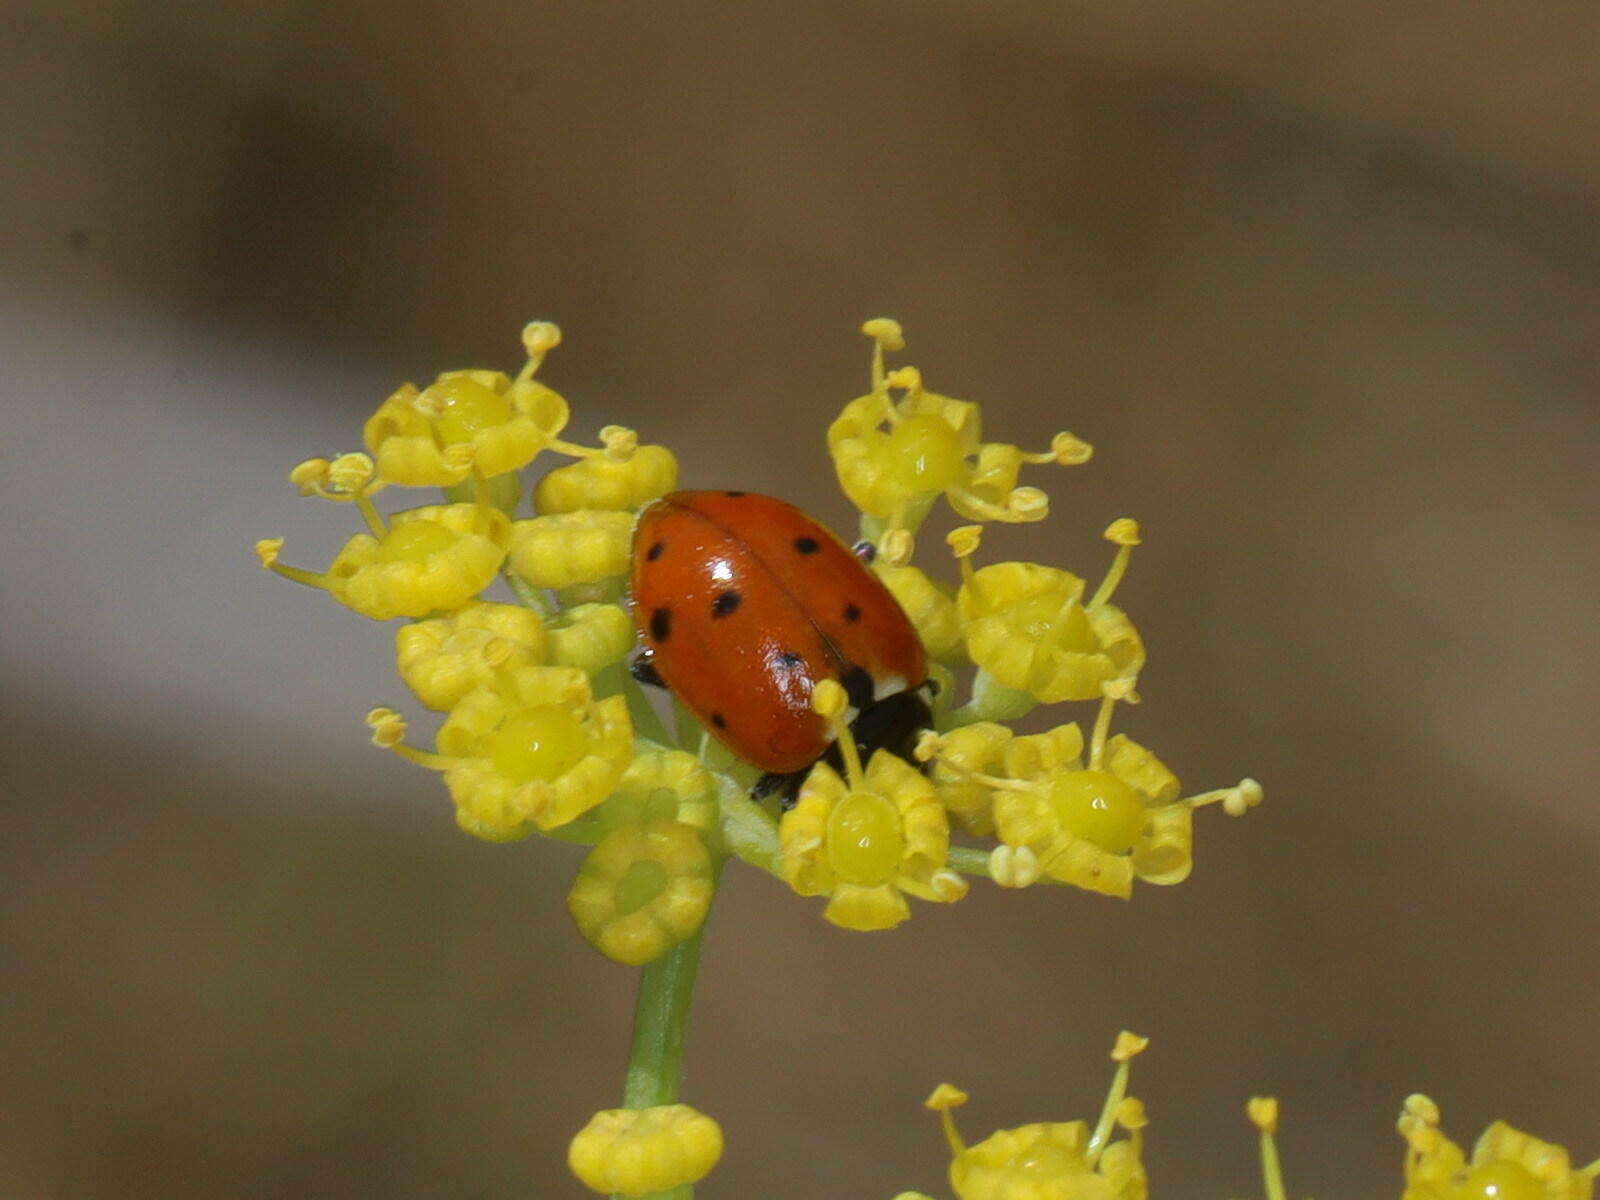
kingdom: Animalia
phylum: Arthropoda
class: Insecta
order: Coleoptera
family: Coccinellidae
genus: Hippodamia
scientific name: Hippodamia variegata
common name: Ladybird beetle
